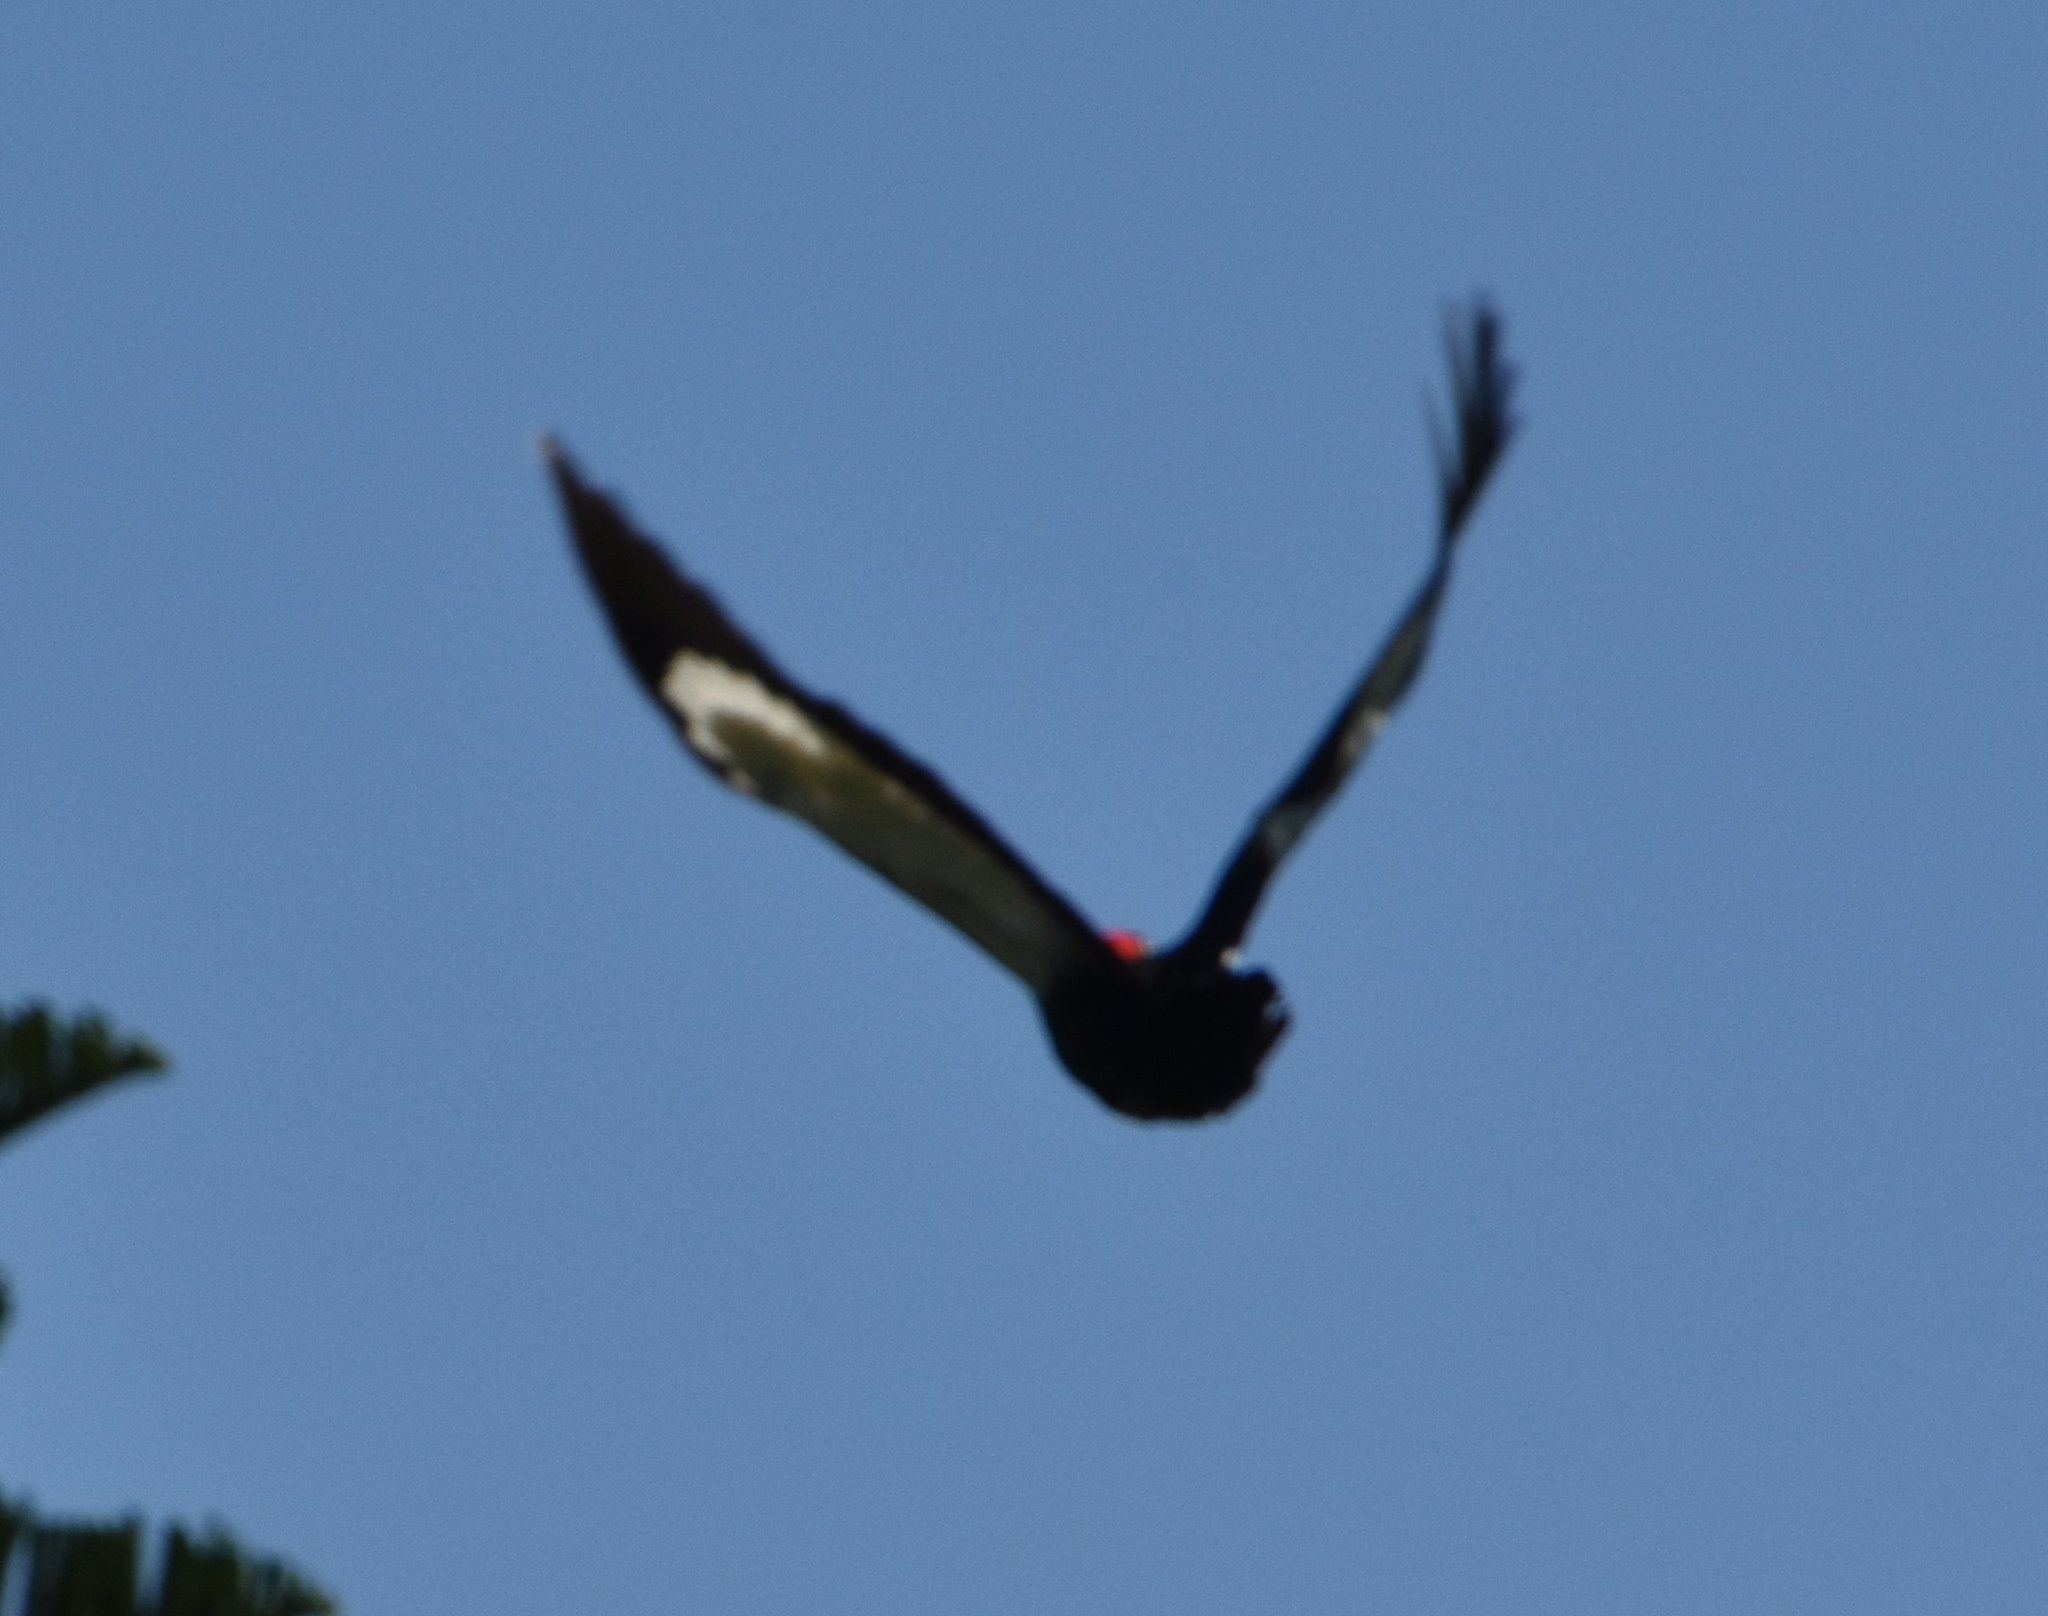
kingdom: Animalia
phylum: Chordata
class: Aves
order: Piciformes
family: Picidae
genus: Dryocopus
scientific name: Dryocopus pileatus
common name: Pileated woodpecker
